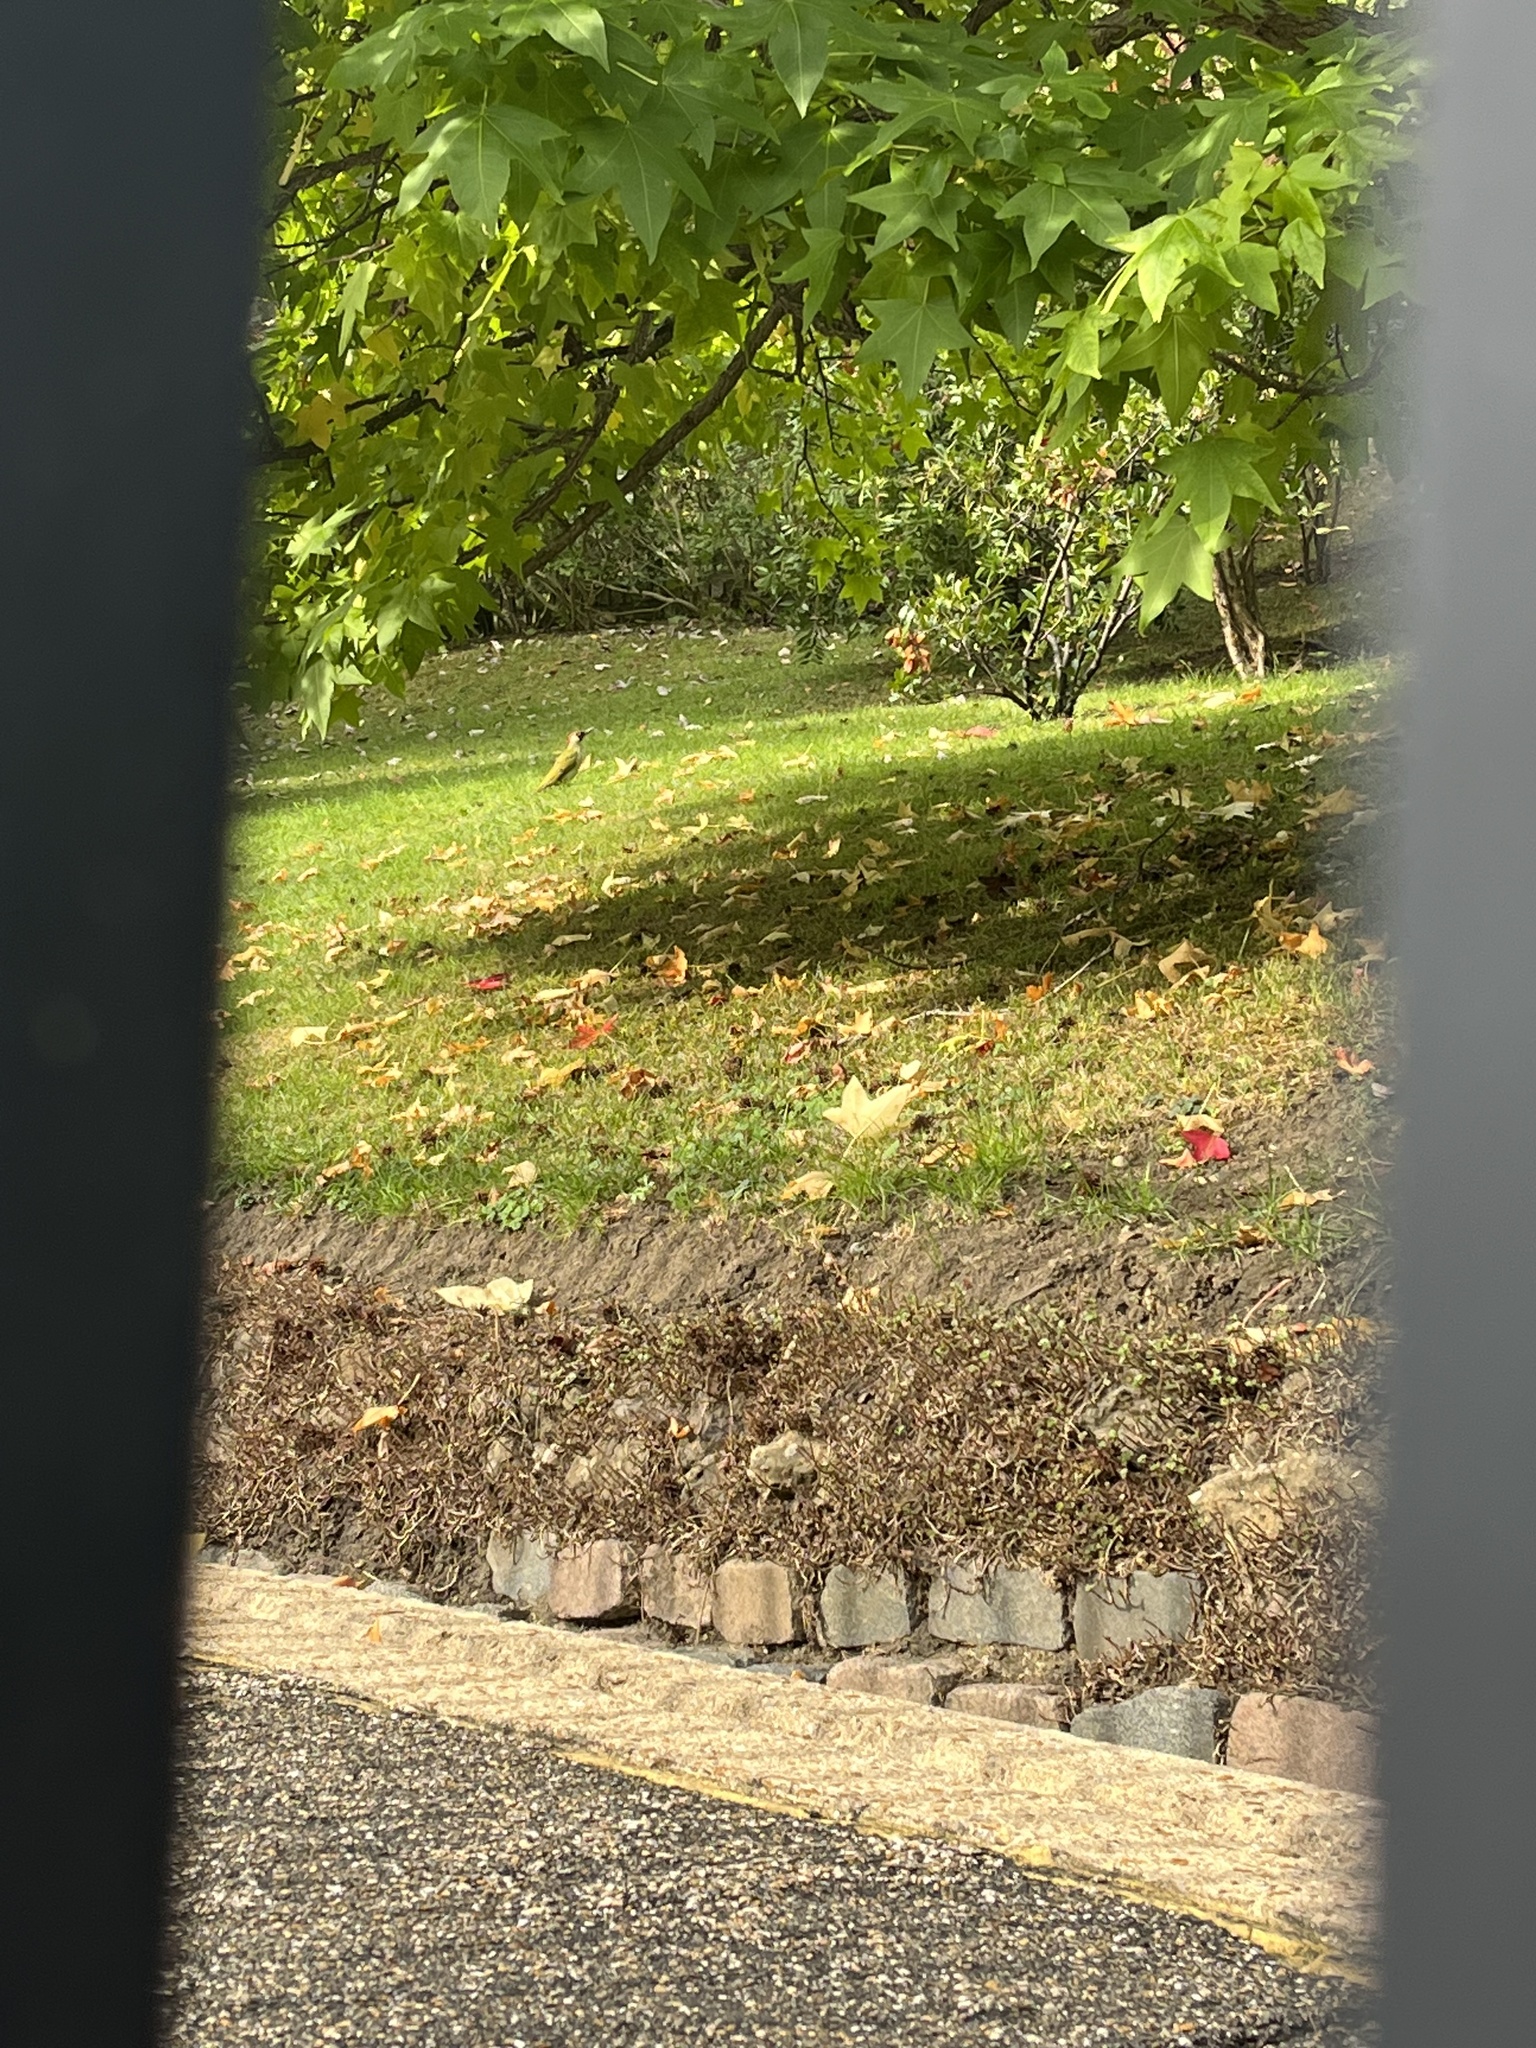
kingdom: Animalia
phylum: Chordata
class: Aves
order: Piciformes
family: Picidae
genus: Picus
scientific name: Picus viridis
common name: European green woodpecker
